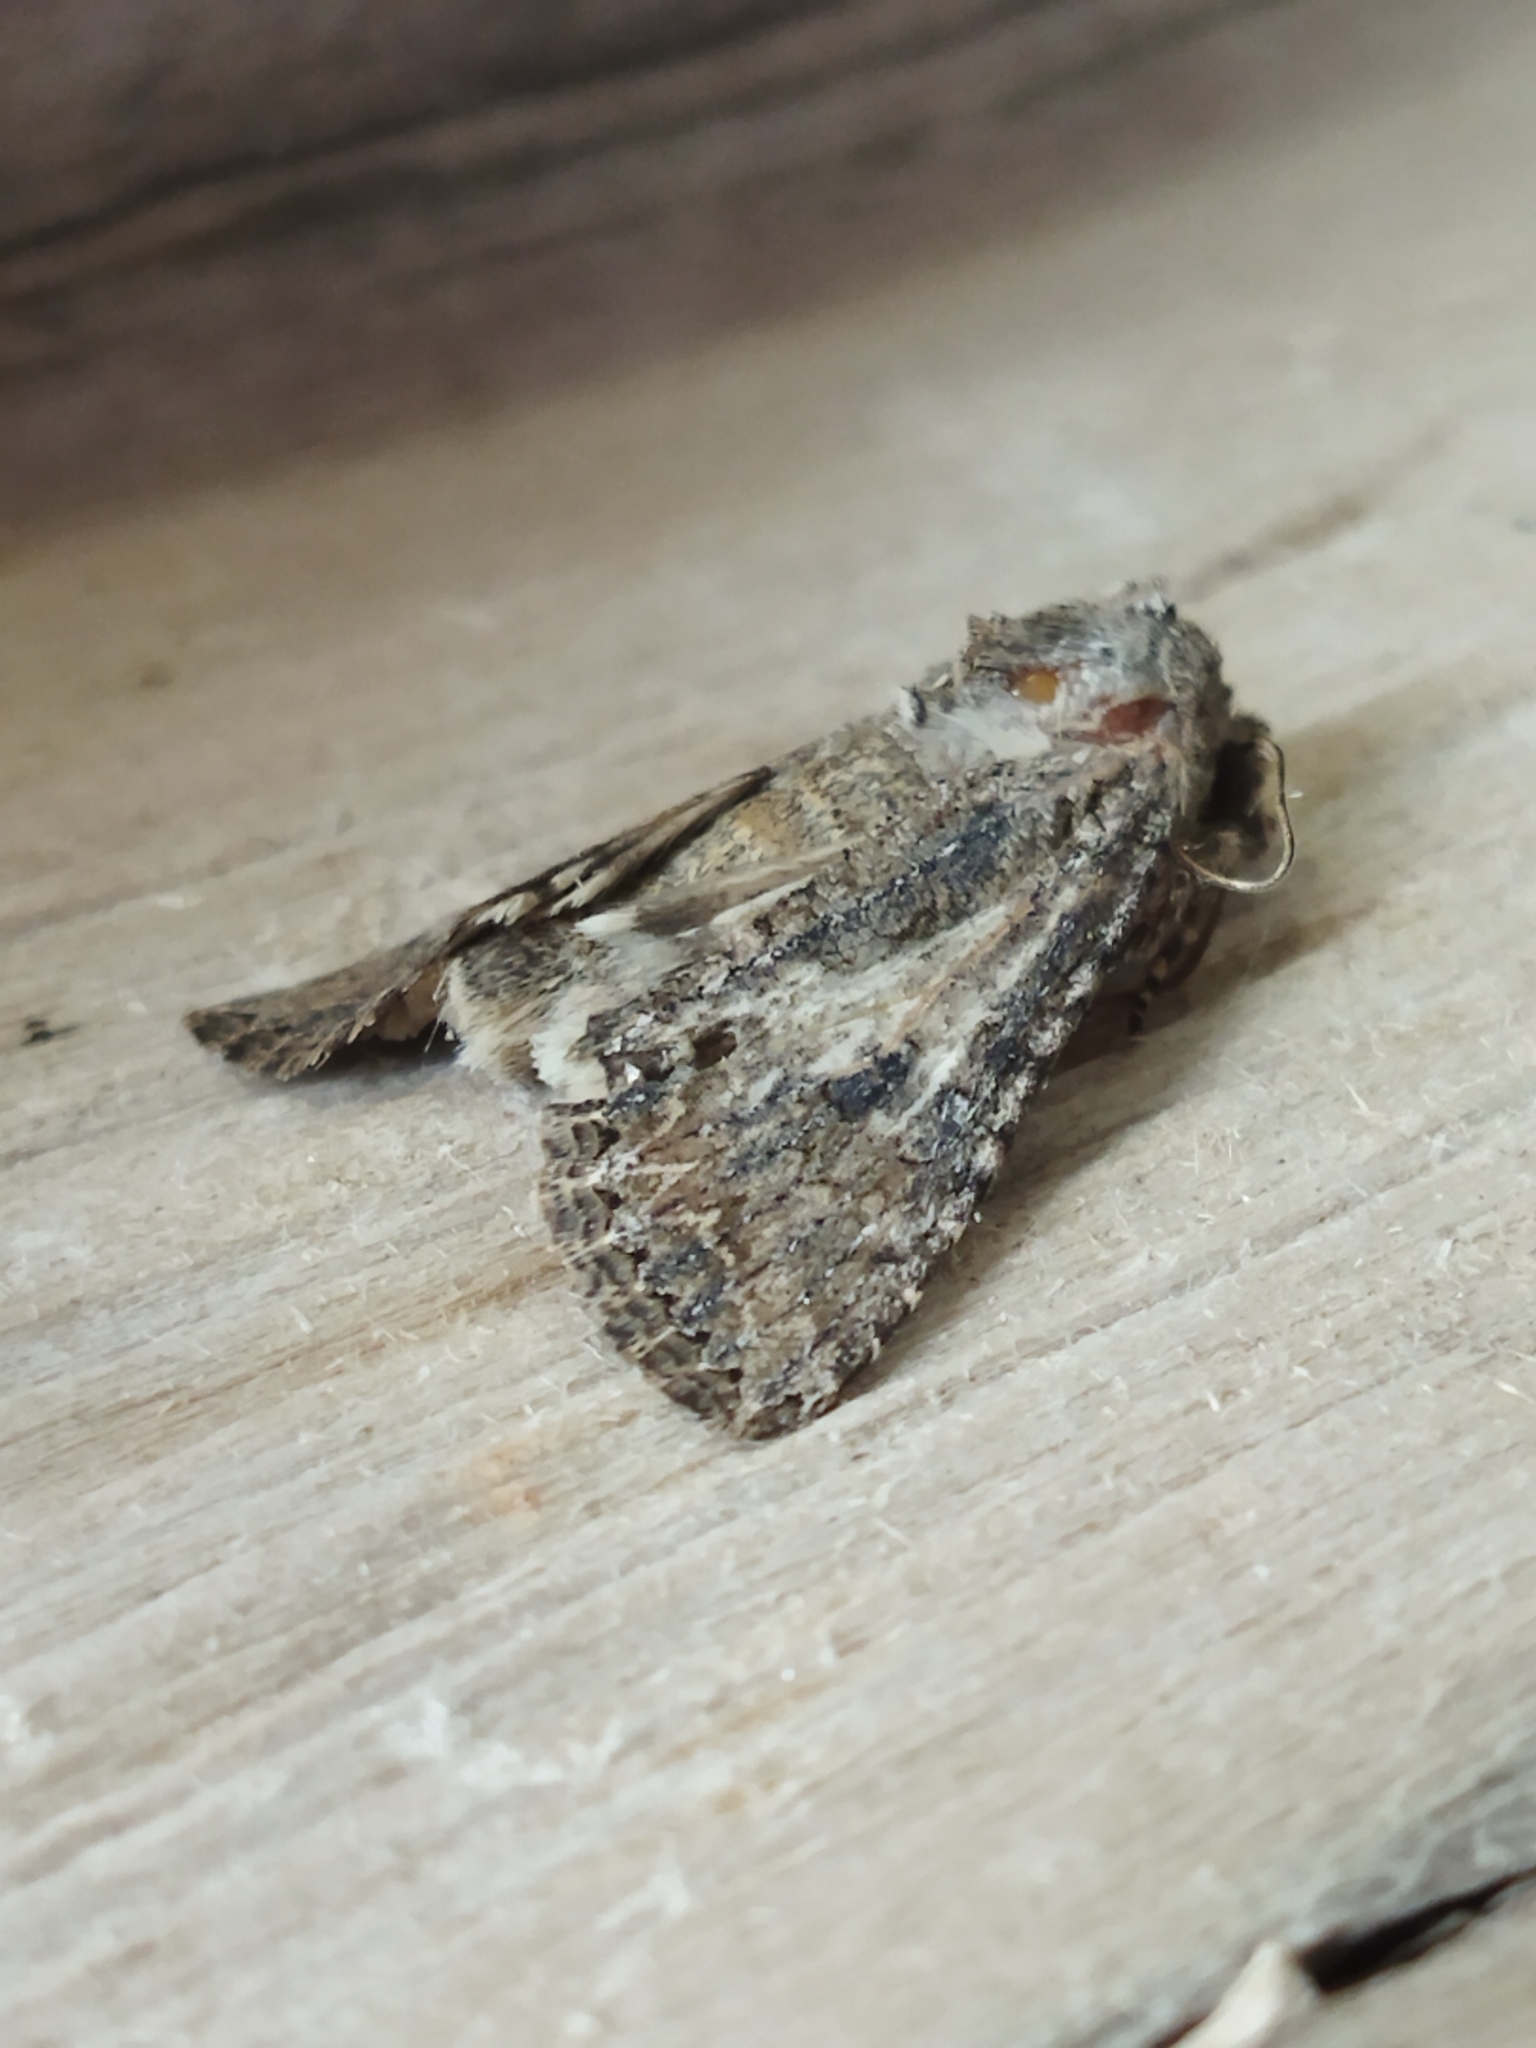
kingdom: Animalia
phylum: Arthropoda
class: Insecta
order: Lepidoptera
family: Noctuidae
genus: Anarta
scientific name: Anarta trifolii
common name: Clover cutworm moth
